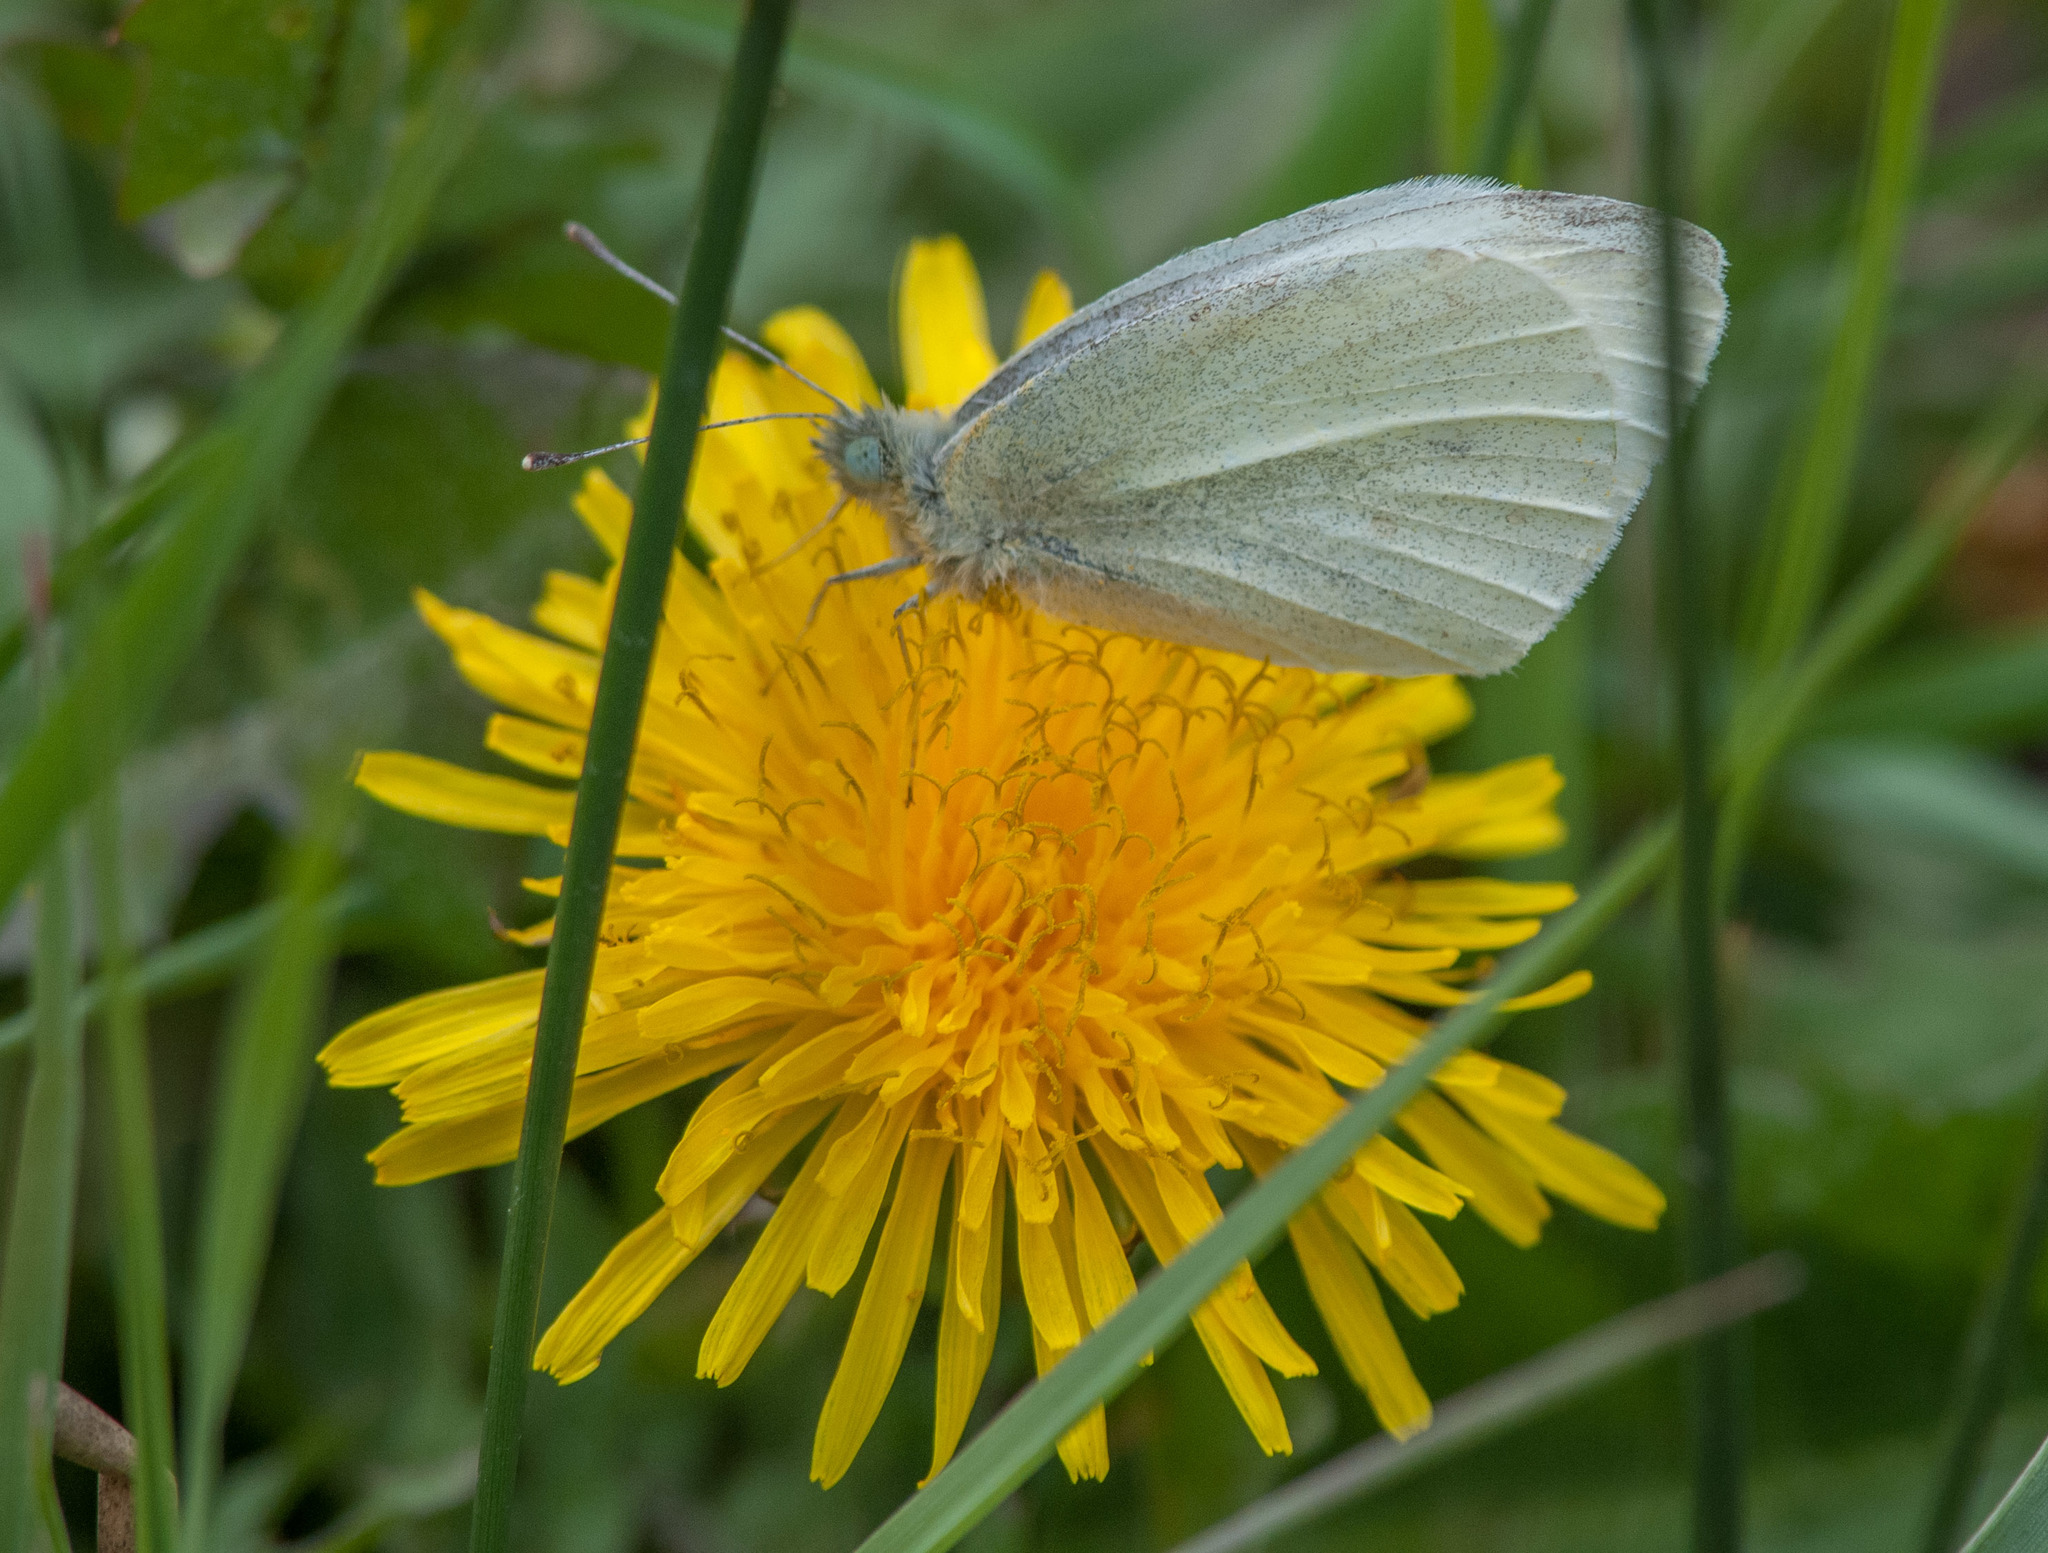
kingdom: Animalia
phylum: Arthropoda
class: Insecta
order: Lepidoptera
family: Pieridae
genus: Pieris
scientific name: Pieris rapae
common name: Small white
